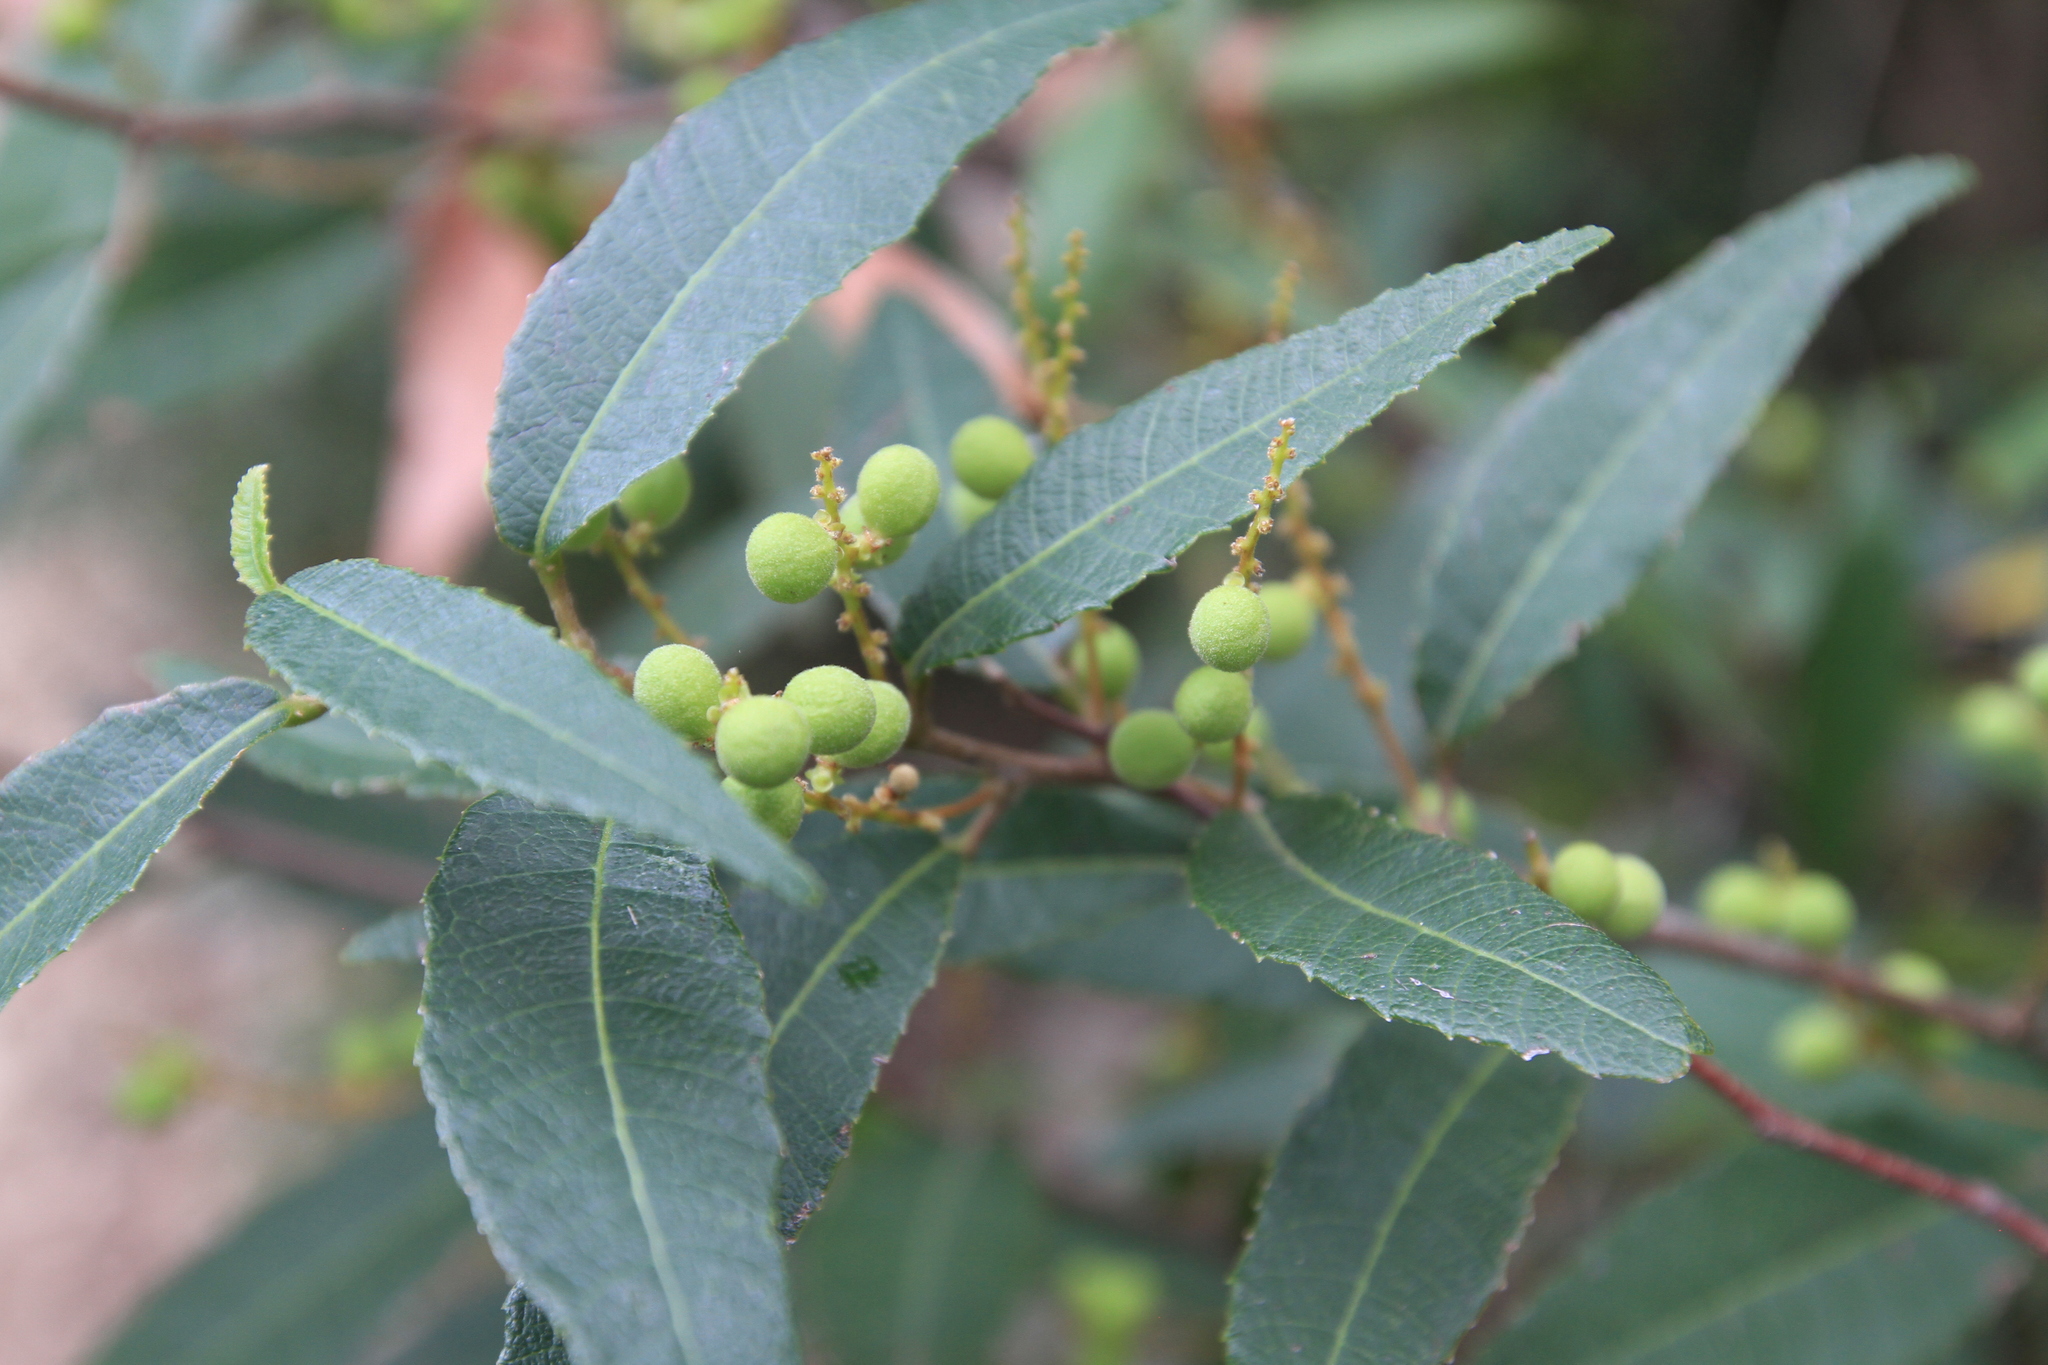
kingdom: Plantae
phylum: Tracheophyta
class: Magnoliopsida
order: Sapindales
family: Sapindaceae
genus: Allophylus
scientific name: Allophylus rigidus
